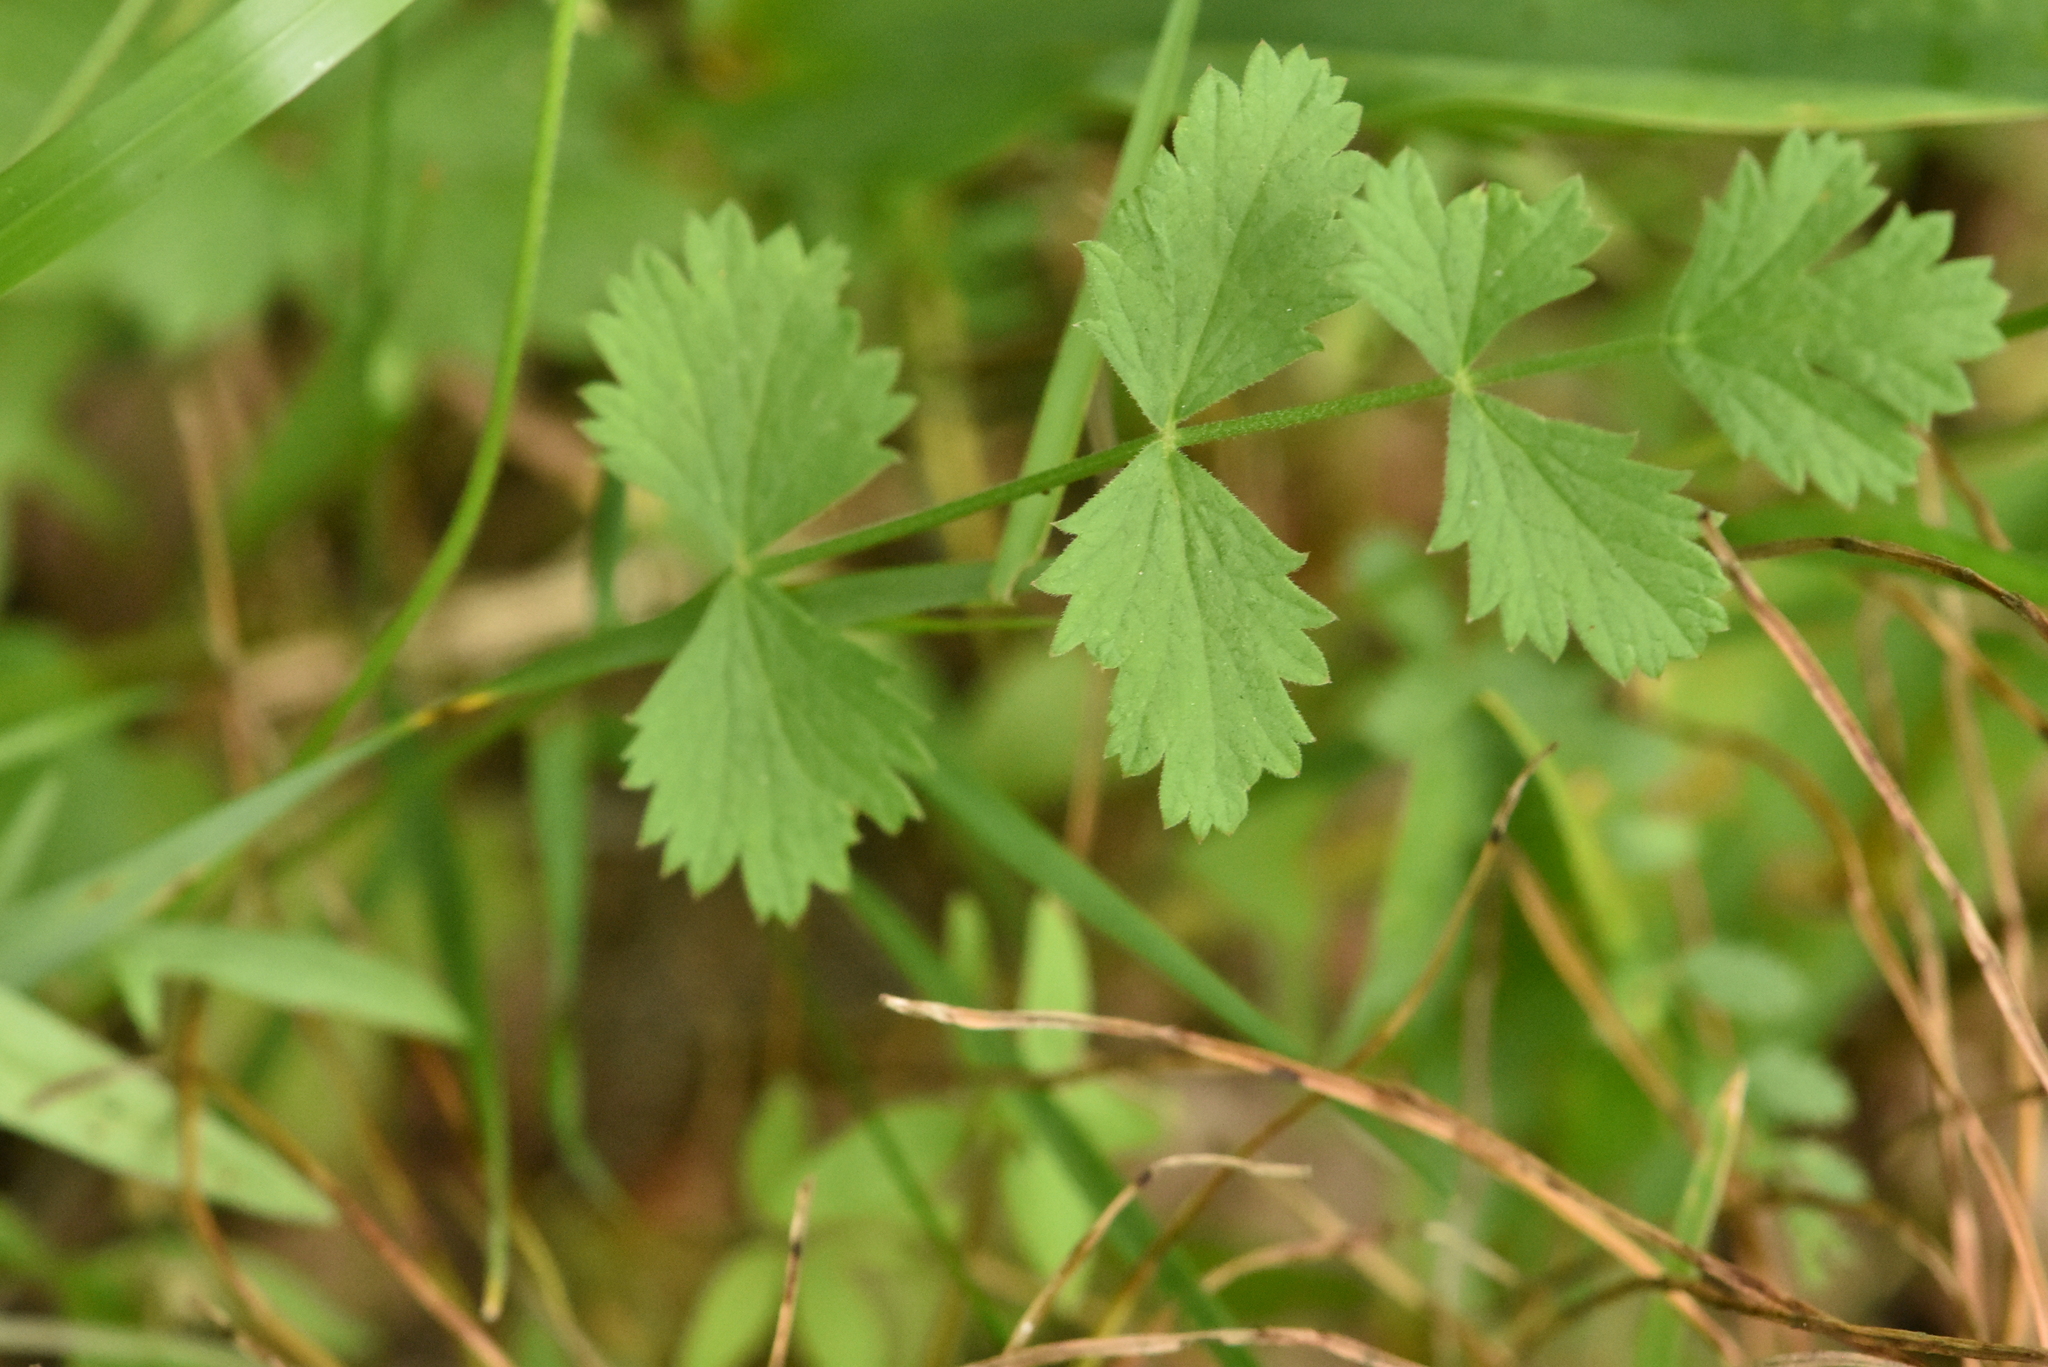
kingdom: Plantae
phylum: Tracheophyta
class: Magnoliopsida
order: Apiales
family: Apiaceae
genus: Pimpinella
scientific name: Pimpinella saxifraga
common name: Burnet-saxifrage
